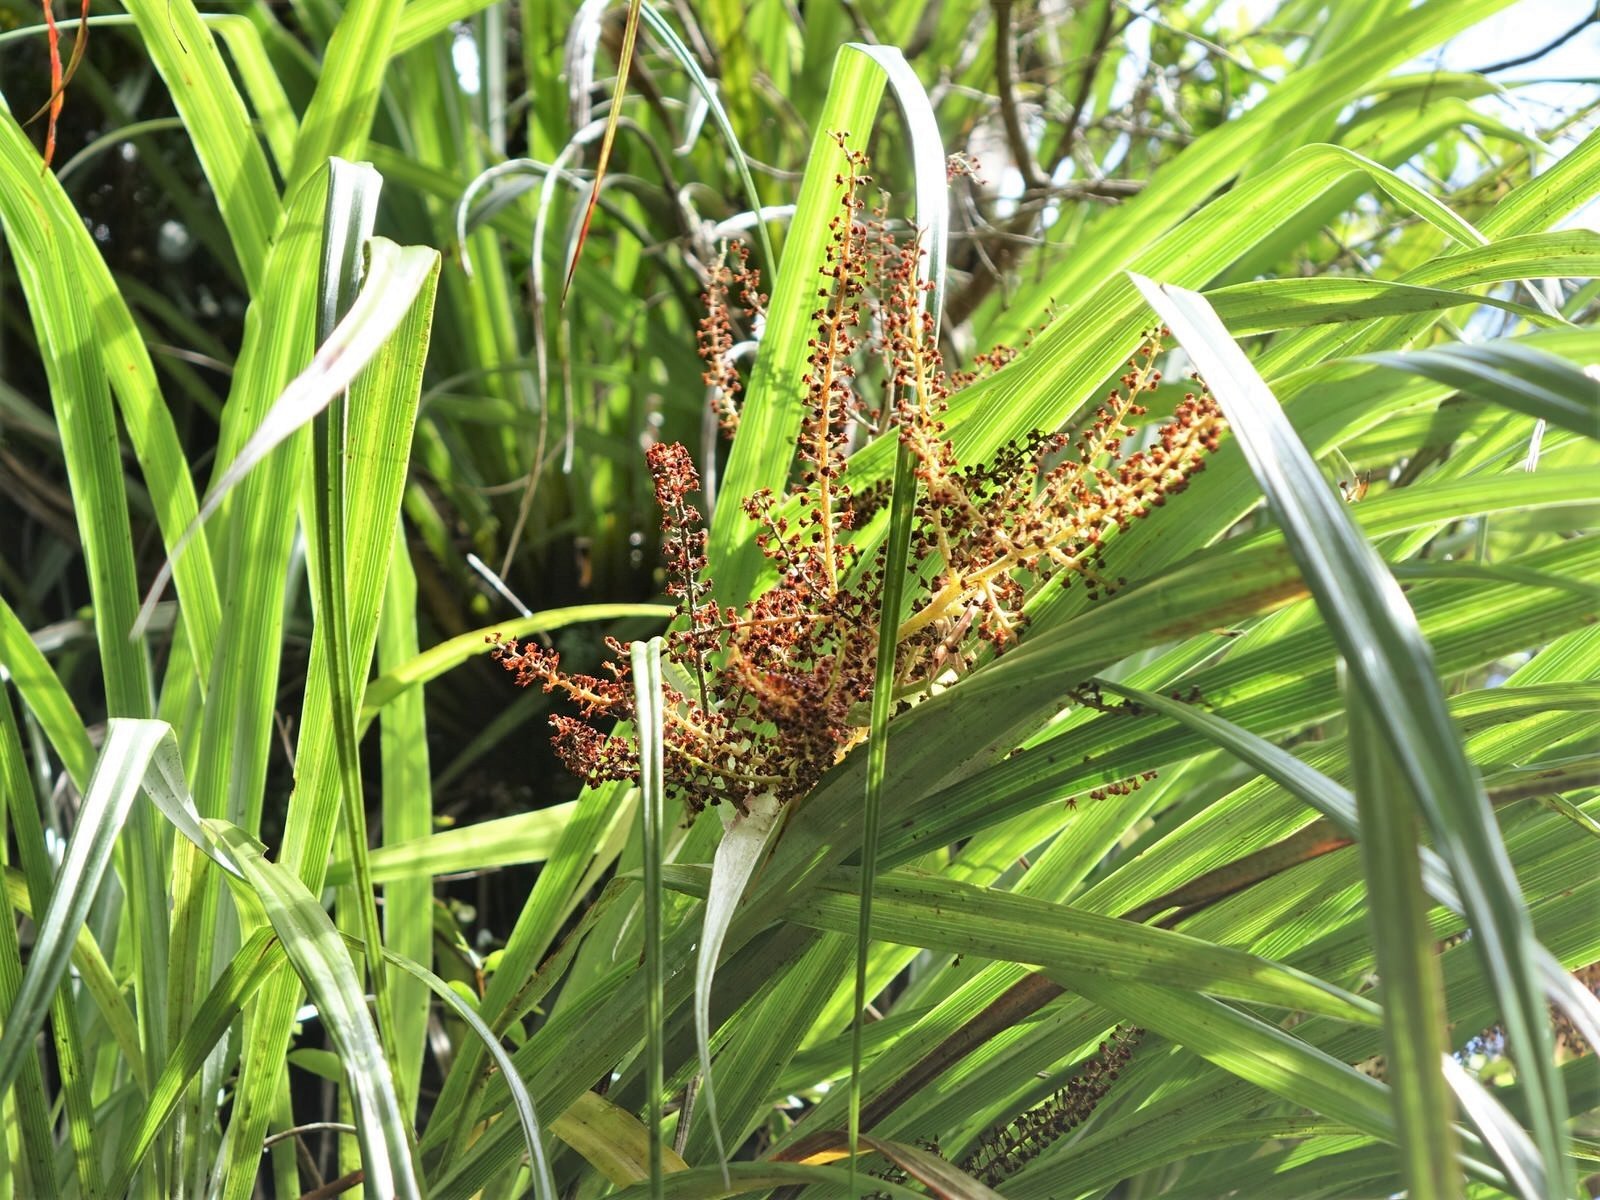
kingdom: Plantae
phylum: Tracheophyta
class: Liliopsida
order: Asparagales
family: Asteliaceae
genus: Astelia
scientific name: Astelia solandri
